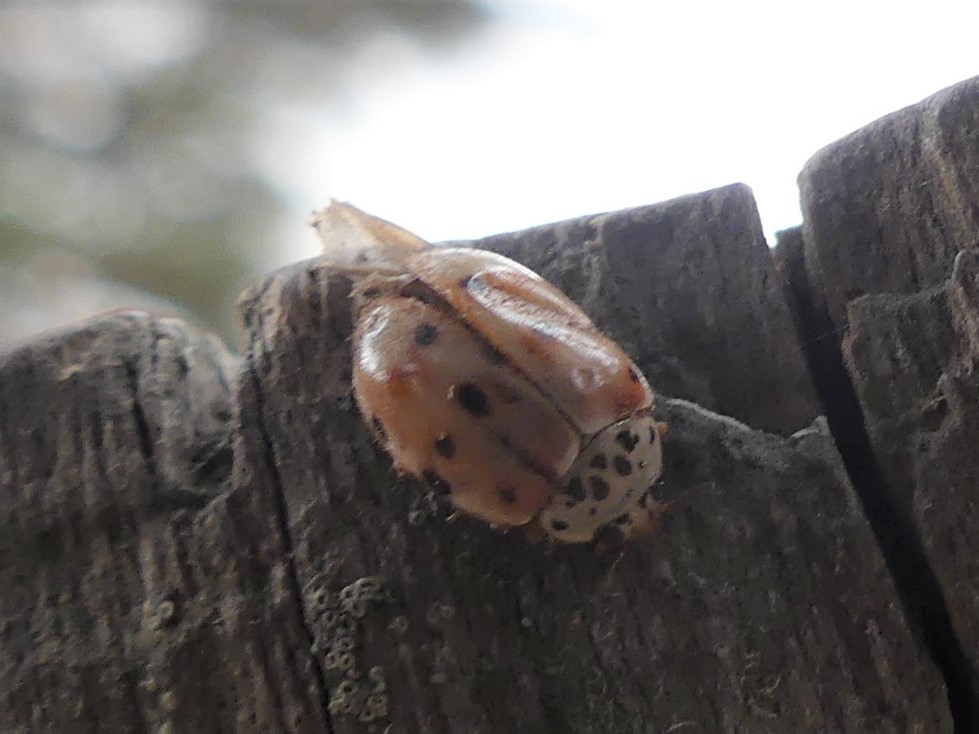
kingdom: Animalia
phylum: Arthropoda
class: Insecta
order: Coleoptera
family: Coccinellidae
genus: Harmonia
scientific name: Harmonia quadripunctata
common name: Cream-streaked ladybird
